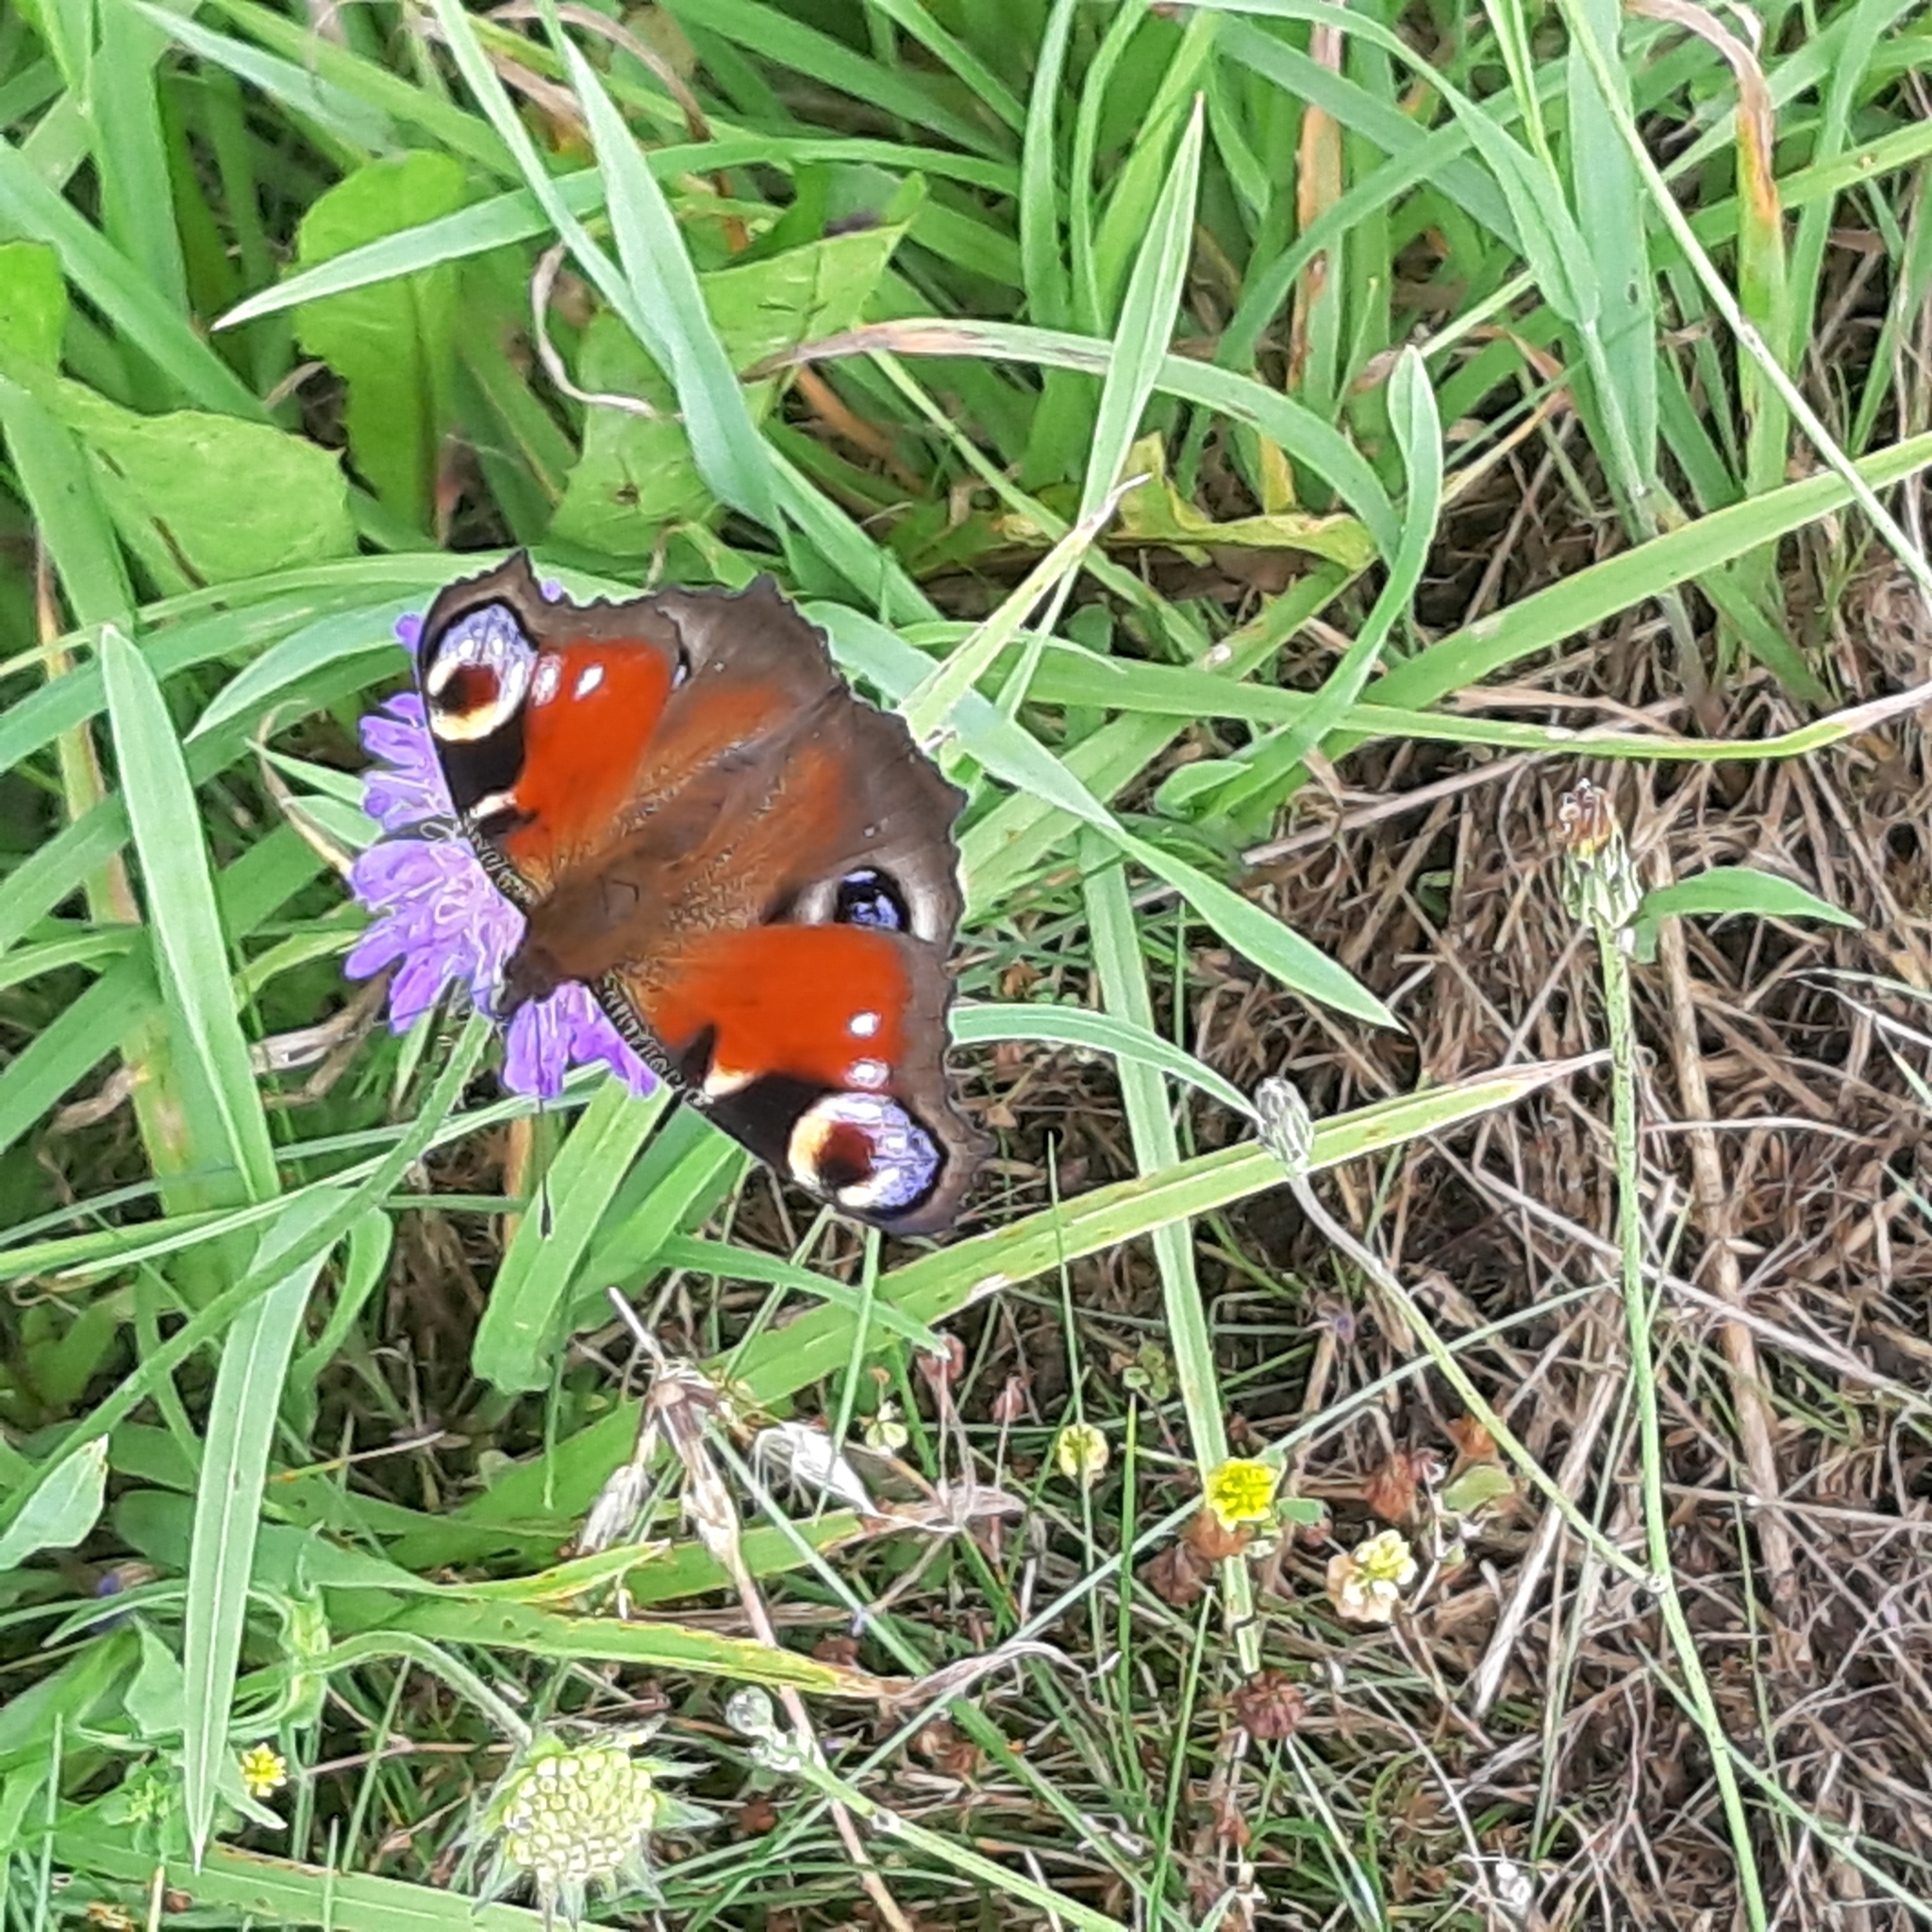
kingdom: Animalia
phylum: Arthropoda
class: Insecta
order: Lepidoptera
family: Nymphalidae
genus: Aglais
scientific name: Aglais io
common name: Peacock
